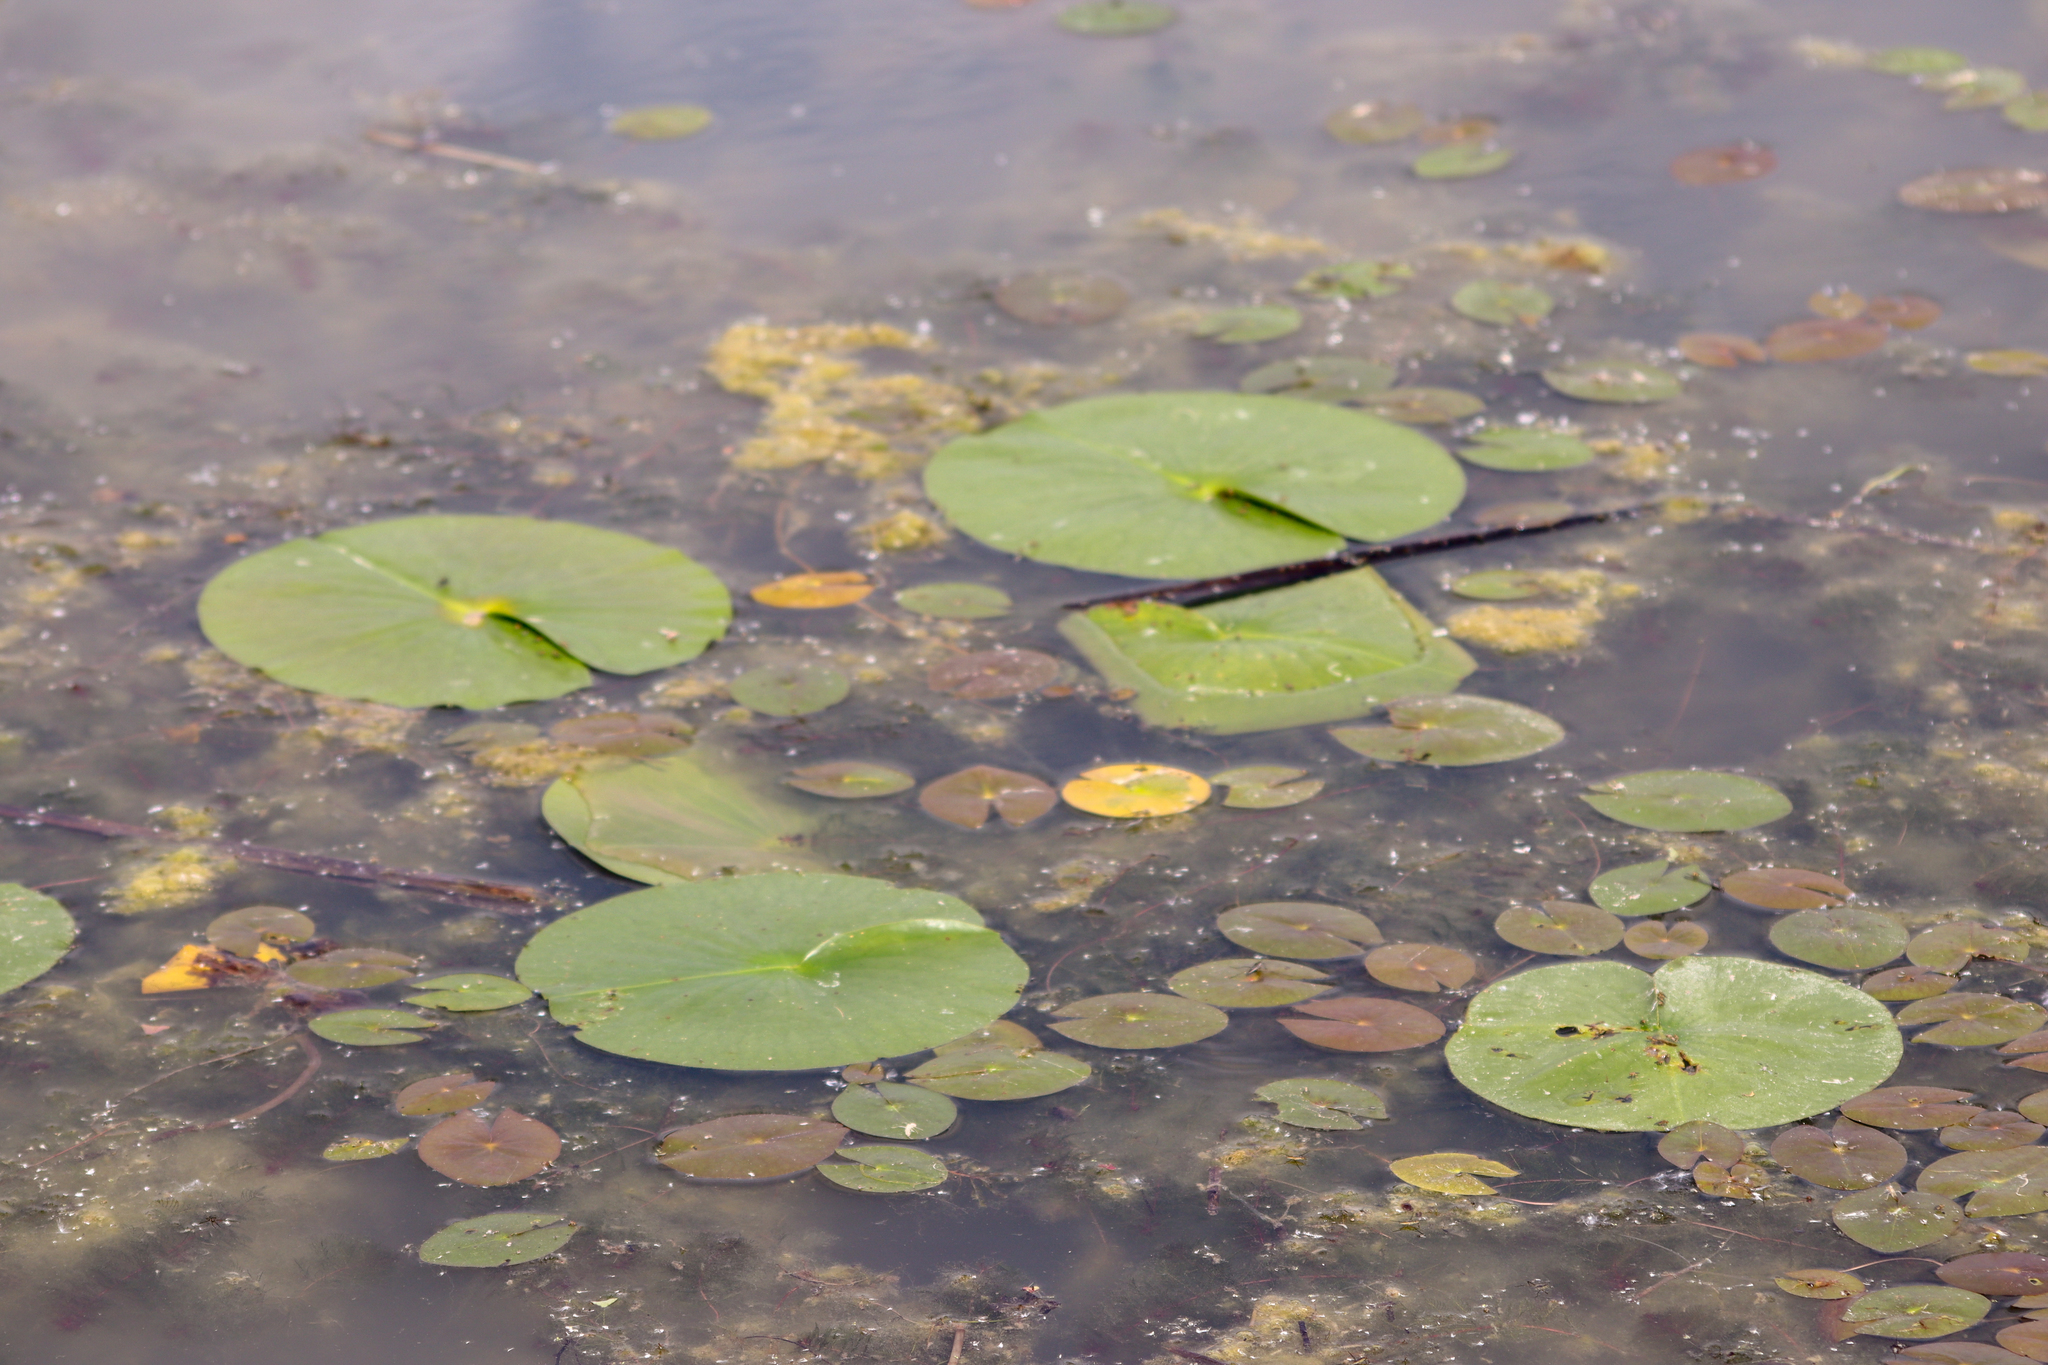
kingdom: Plantae
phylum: Tracheophyta
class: Magnoliopsida
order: Nymphaeales
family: Nymphaeaceae
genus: Nymphaea
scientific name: Nymphaea odorata
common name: Fragrant water-lily
